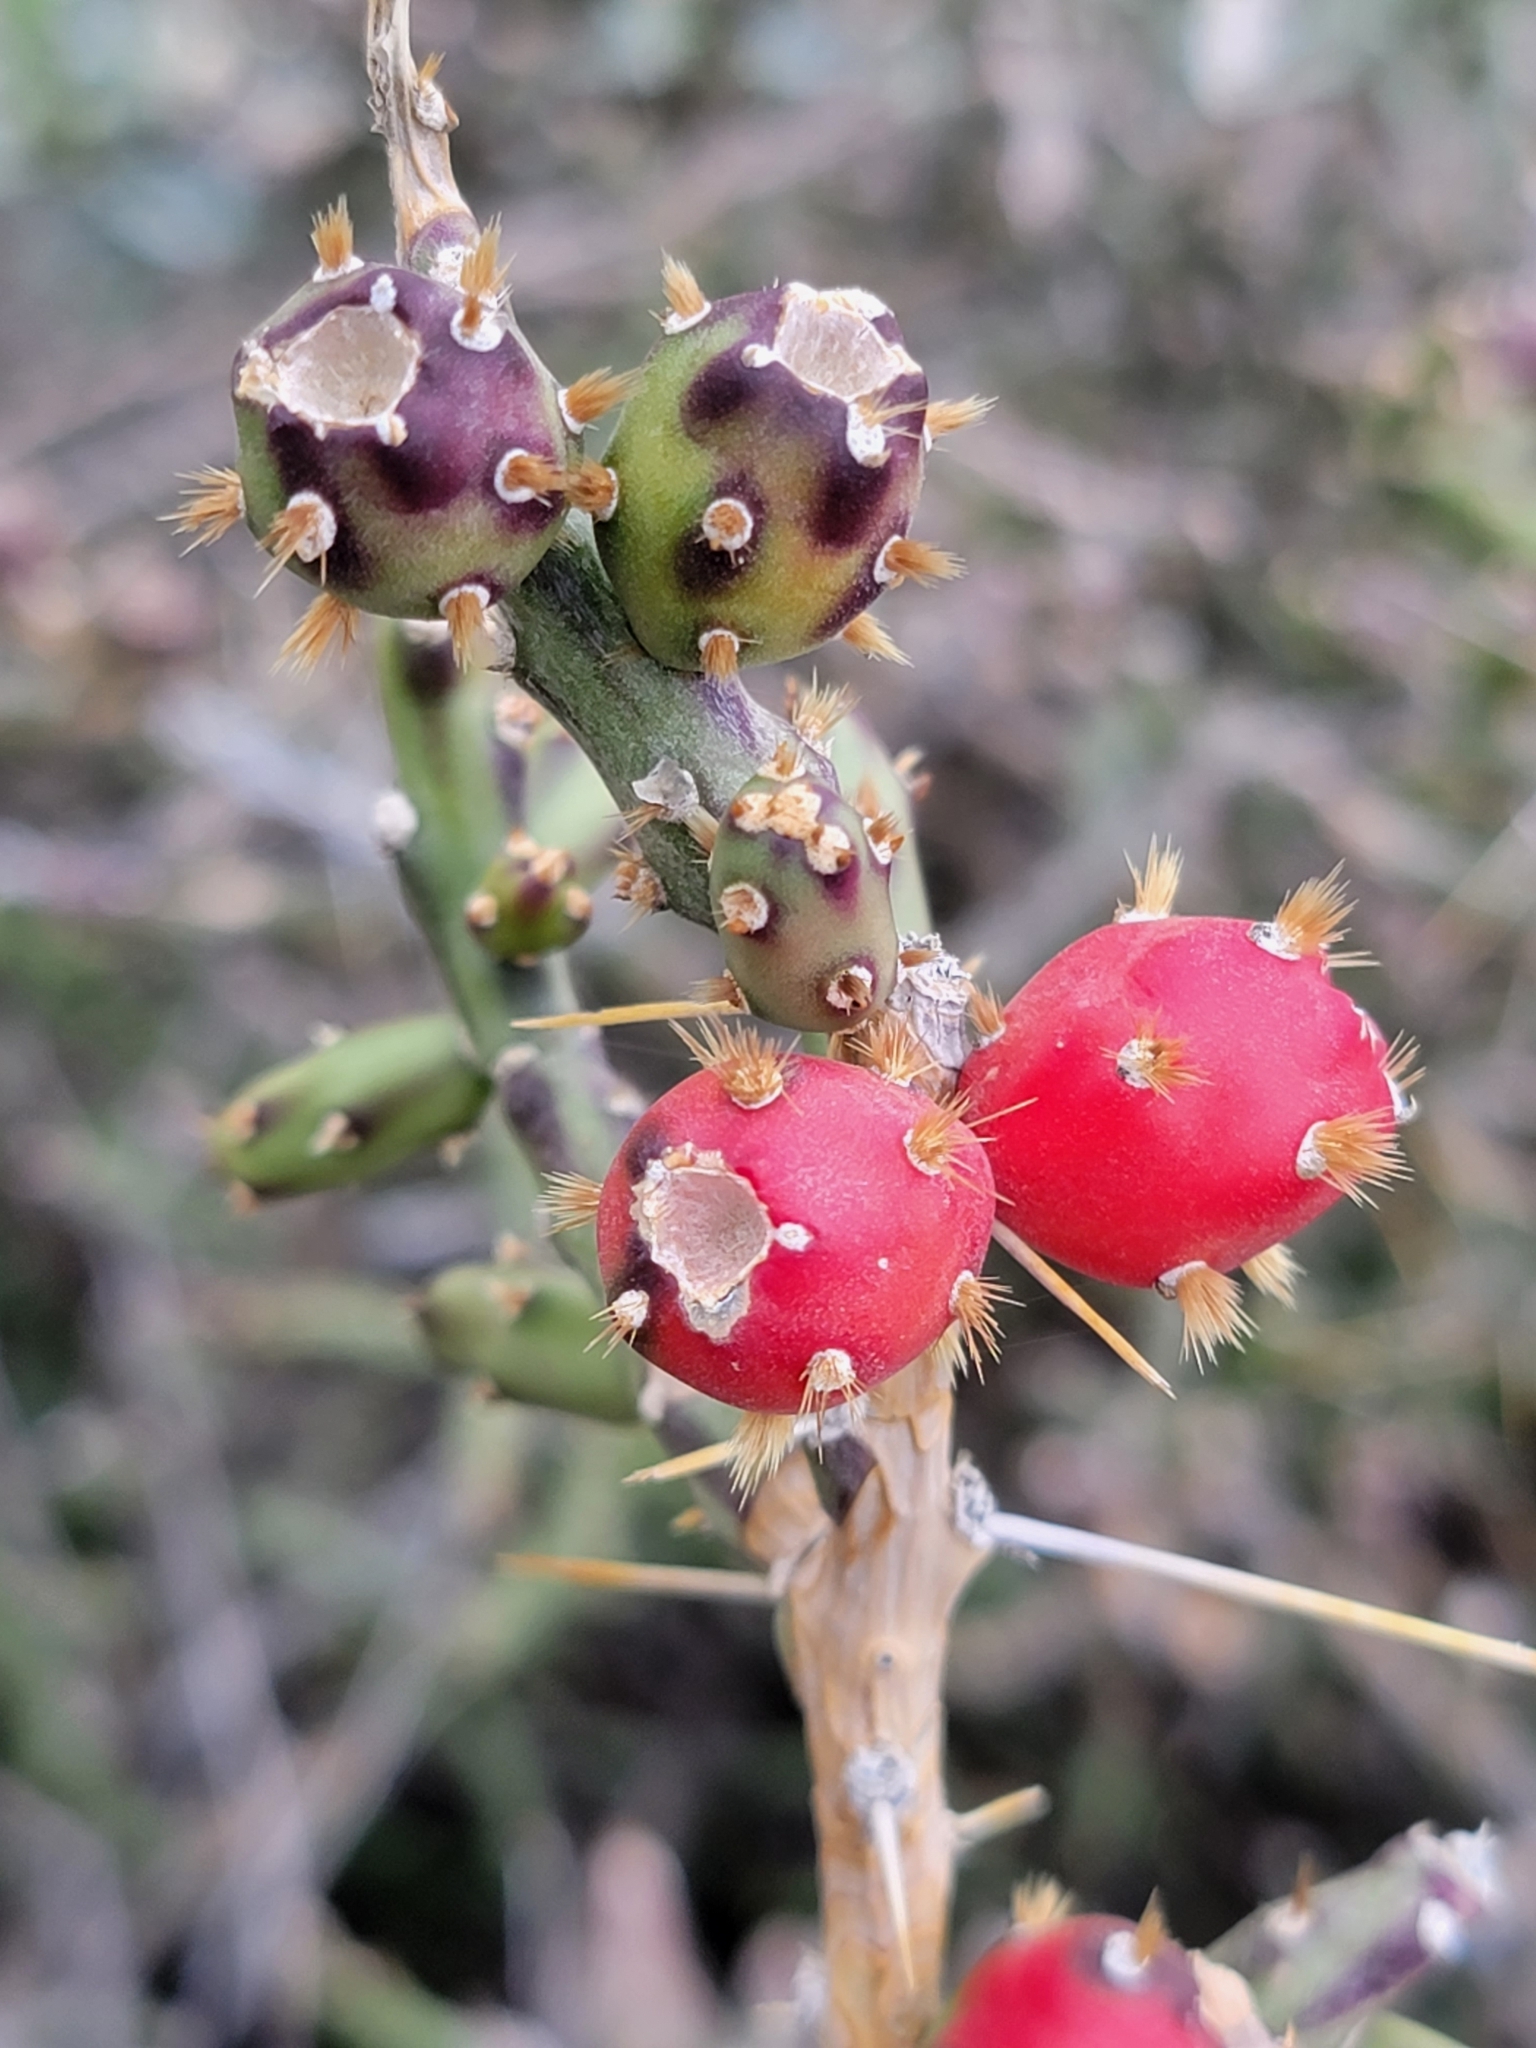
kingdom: Plantae
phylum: Tracheophyta
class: Magnoliopsida
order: Caryophyllales
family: Cactaceae
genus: Cylindropuntia
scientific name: Cylindropuntia leptocaulis
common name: Christmas cactus
